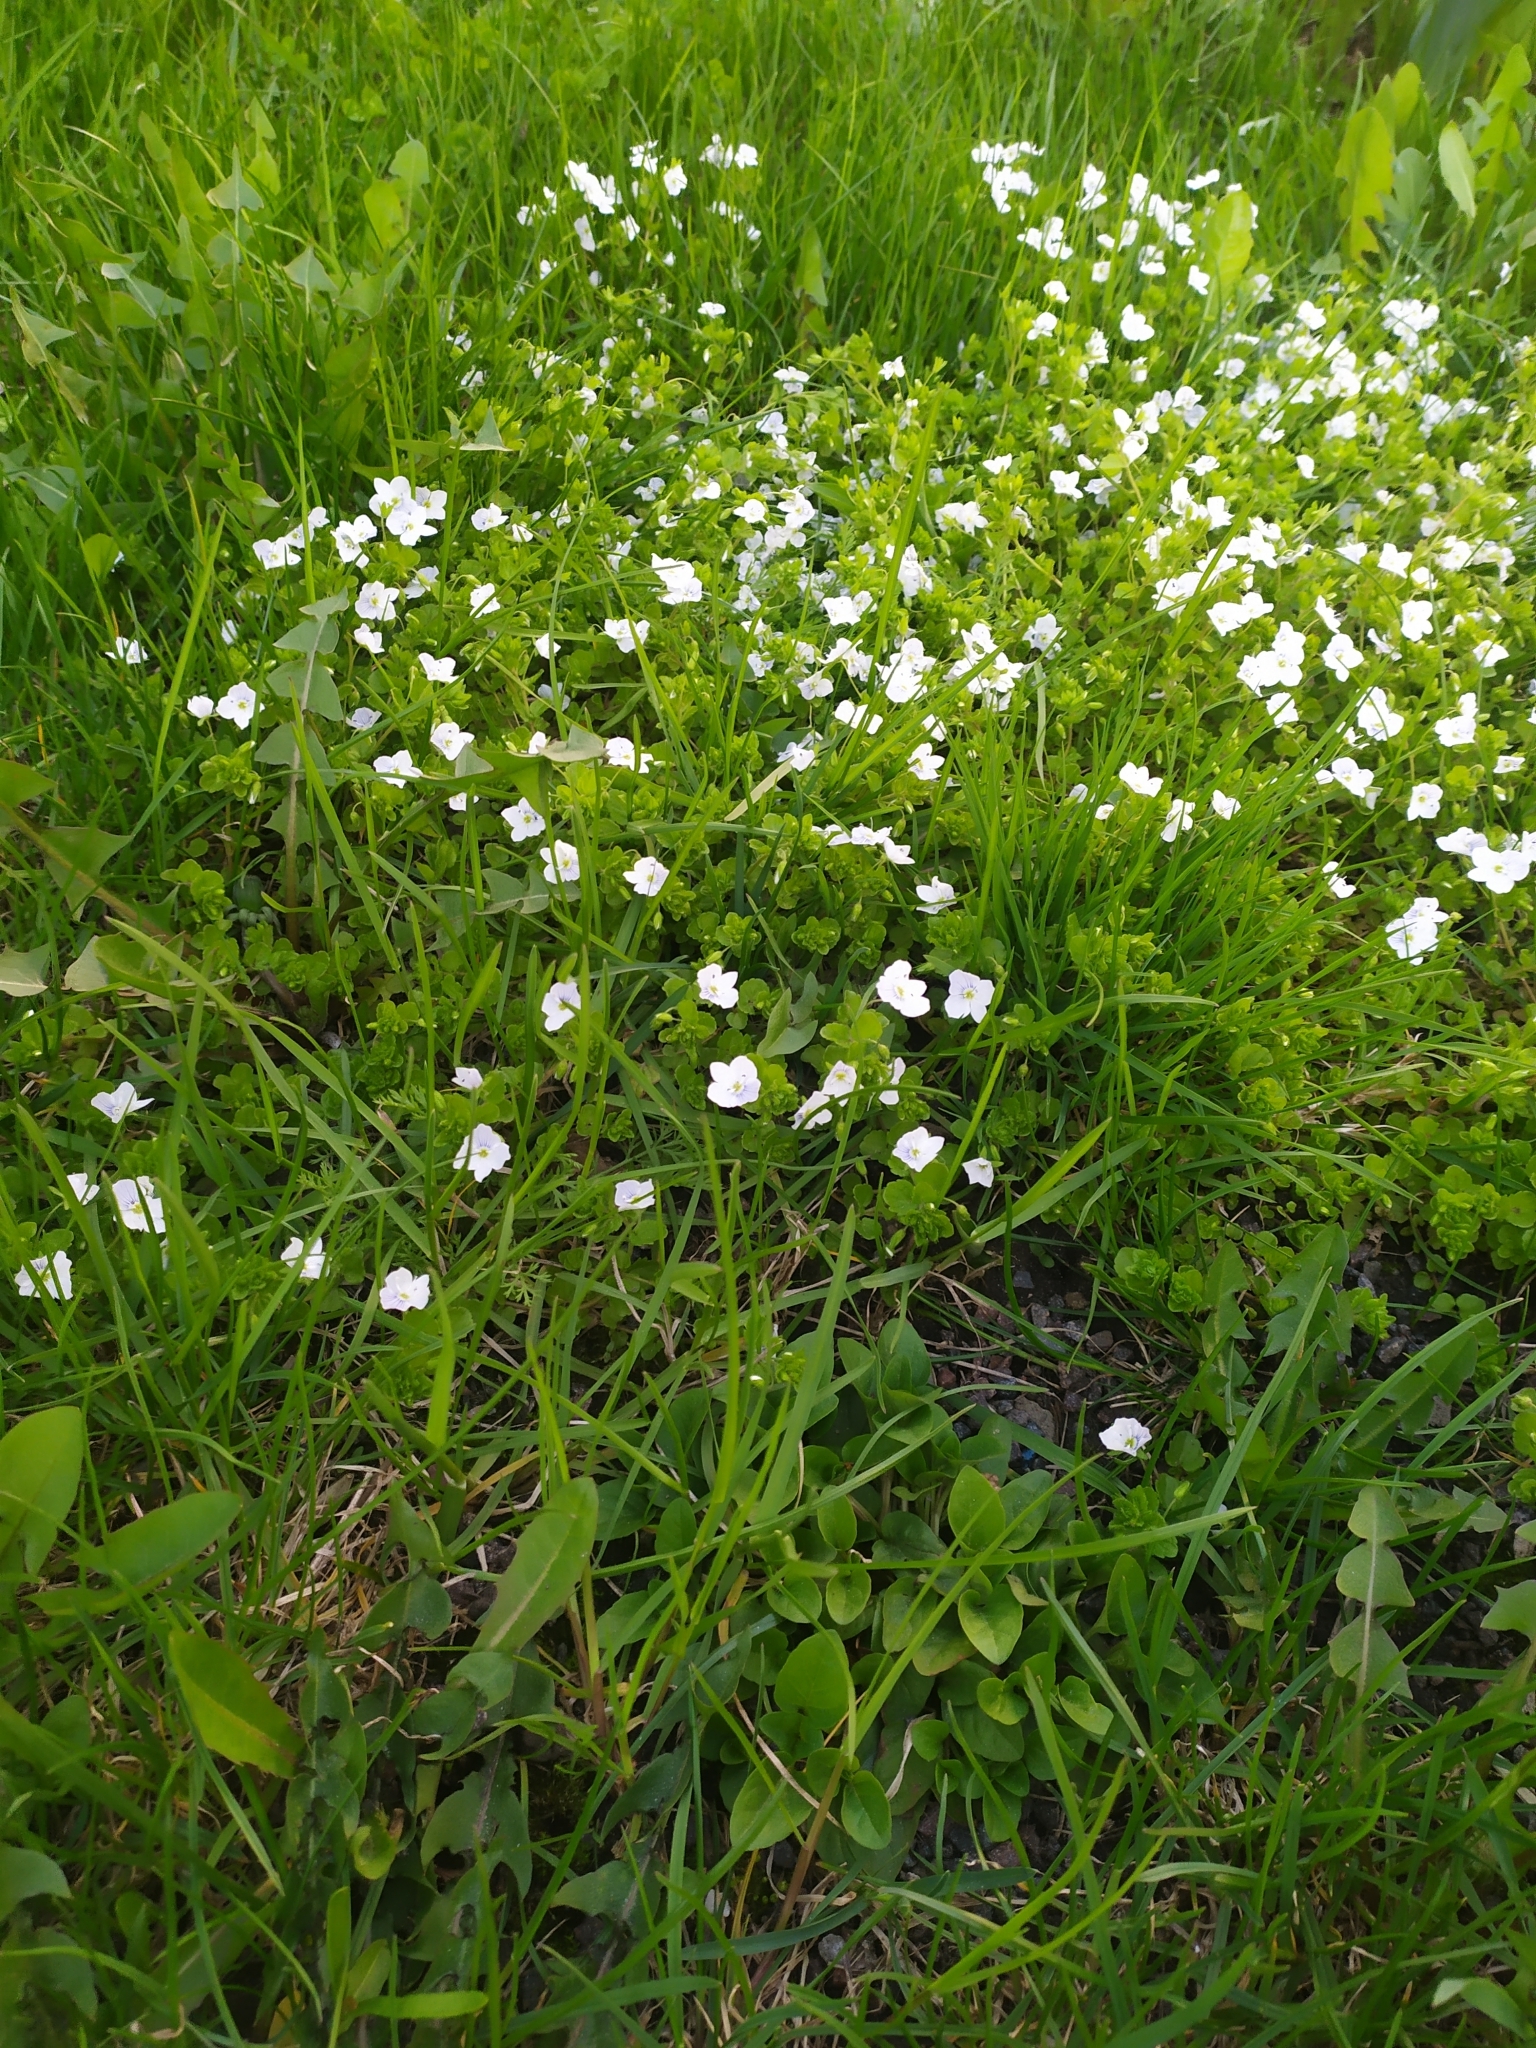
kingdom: Plantae
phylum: Tracheophyta
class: Magnoliopsida
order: Lamiales
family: Plantaginaceae
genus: Veronica
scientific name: Veronica filiformis
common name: Slender speedwell
